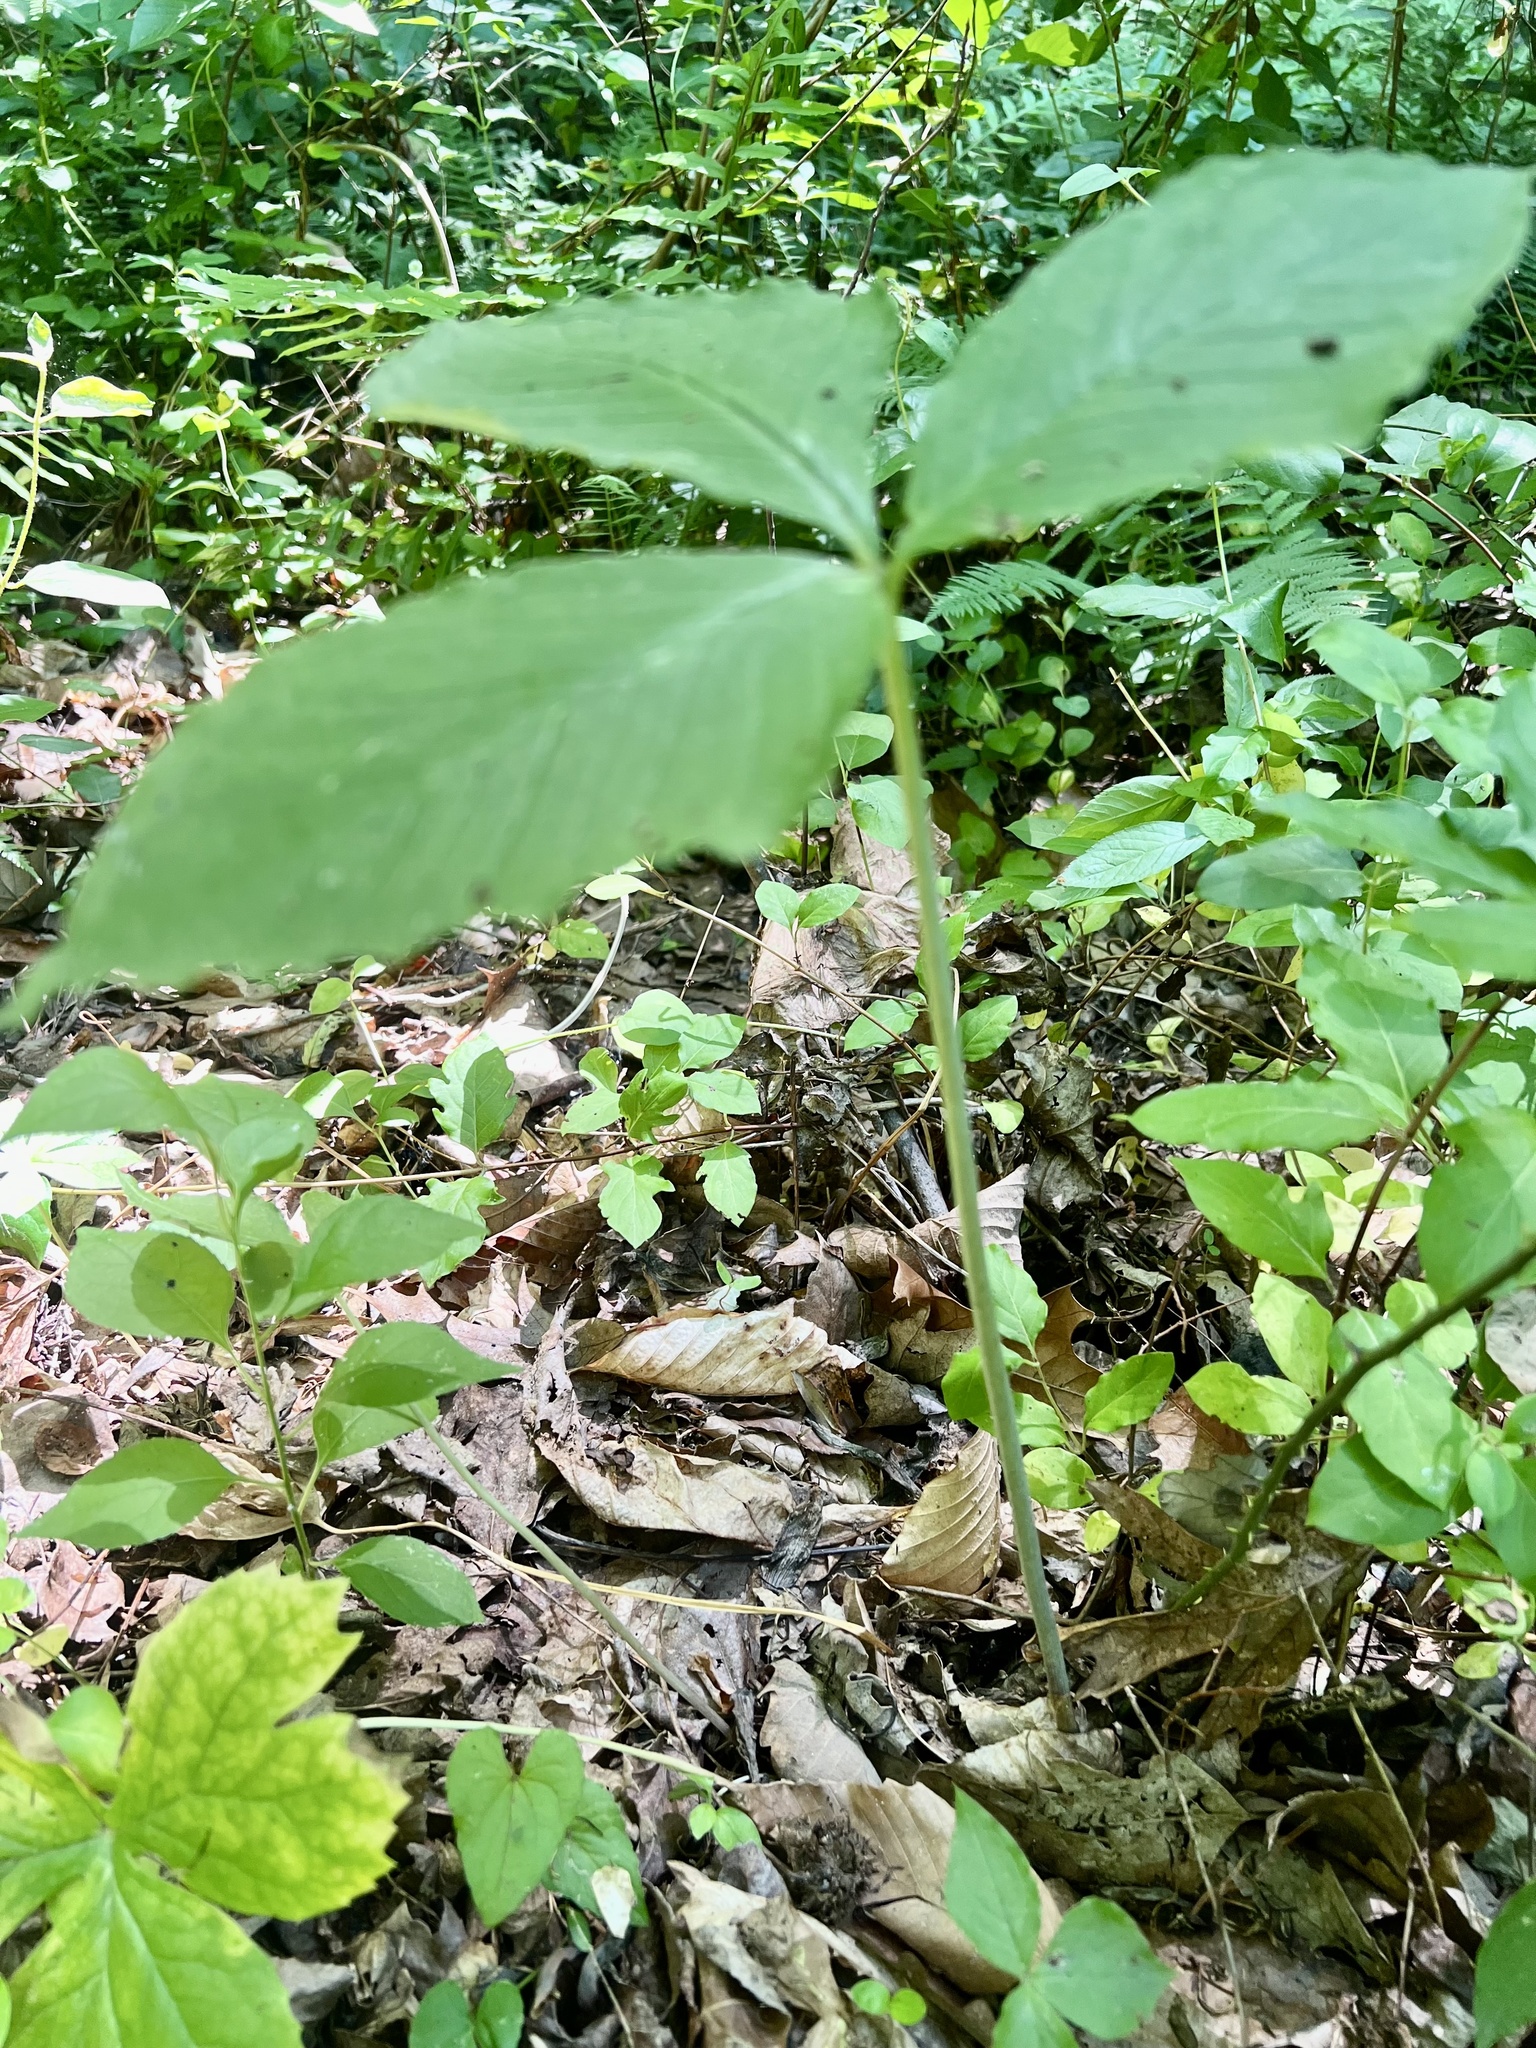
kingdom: Plantae
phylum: Tracheophyta
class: Liliopsida
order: Alismatales
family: Araceae
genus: Arisaema
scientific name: Arisaema triphyllum
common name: Jack-in-the-pulpit
